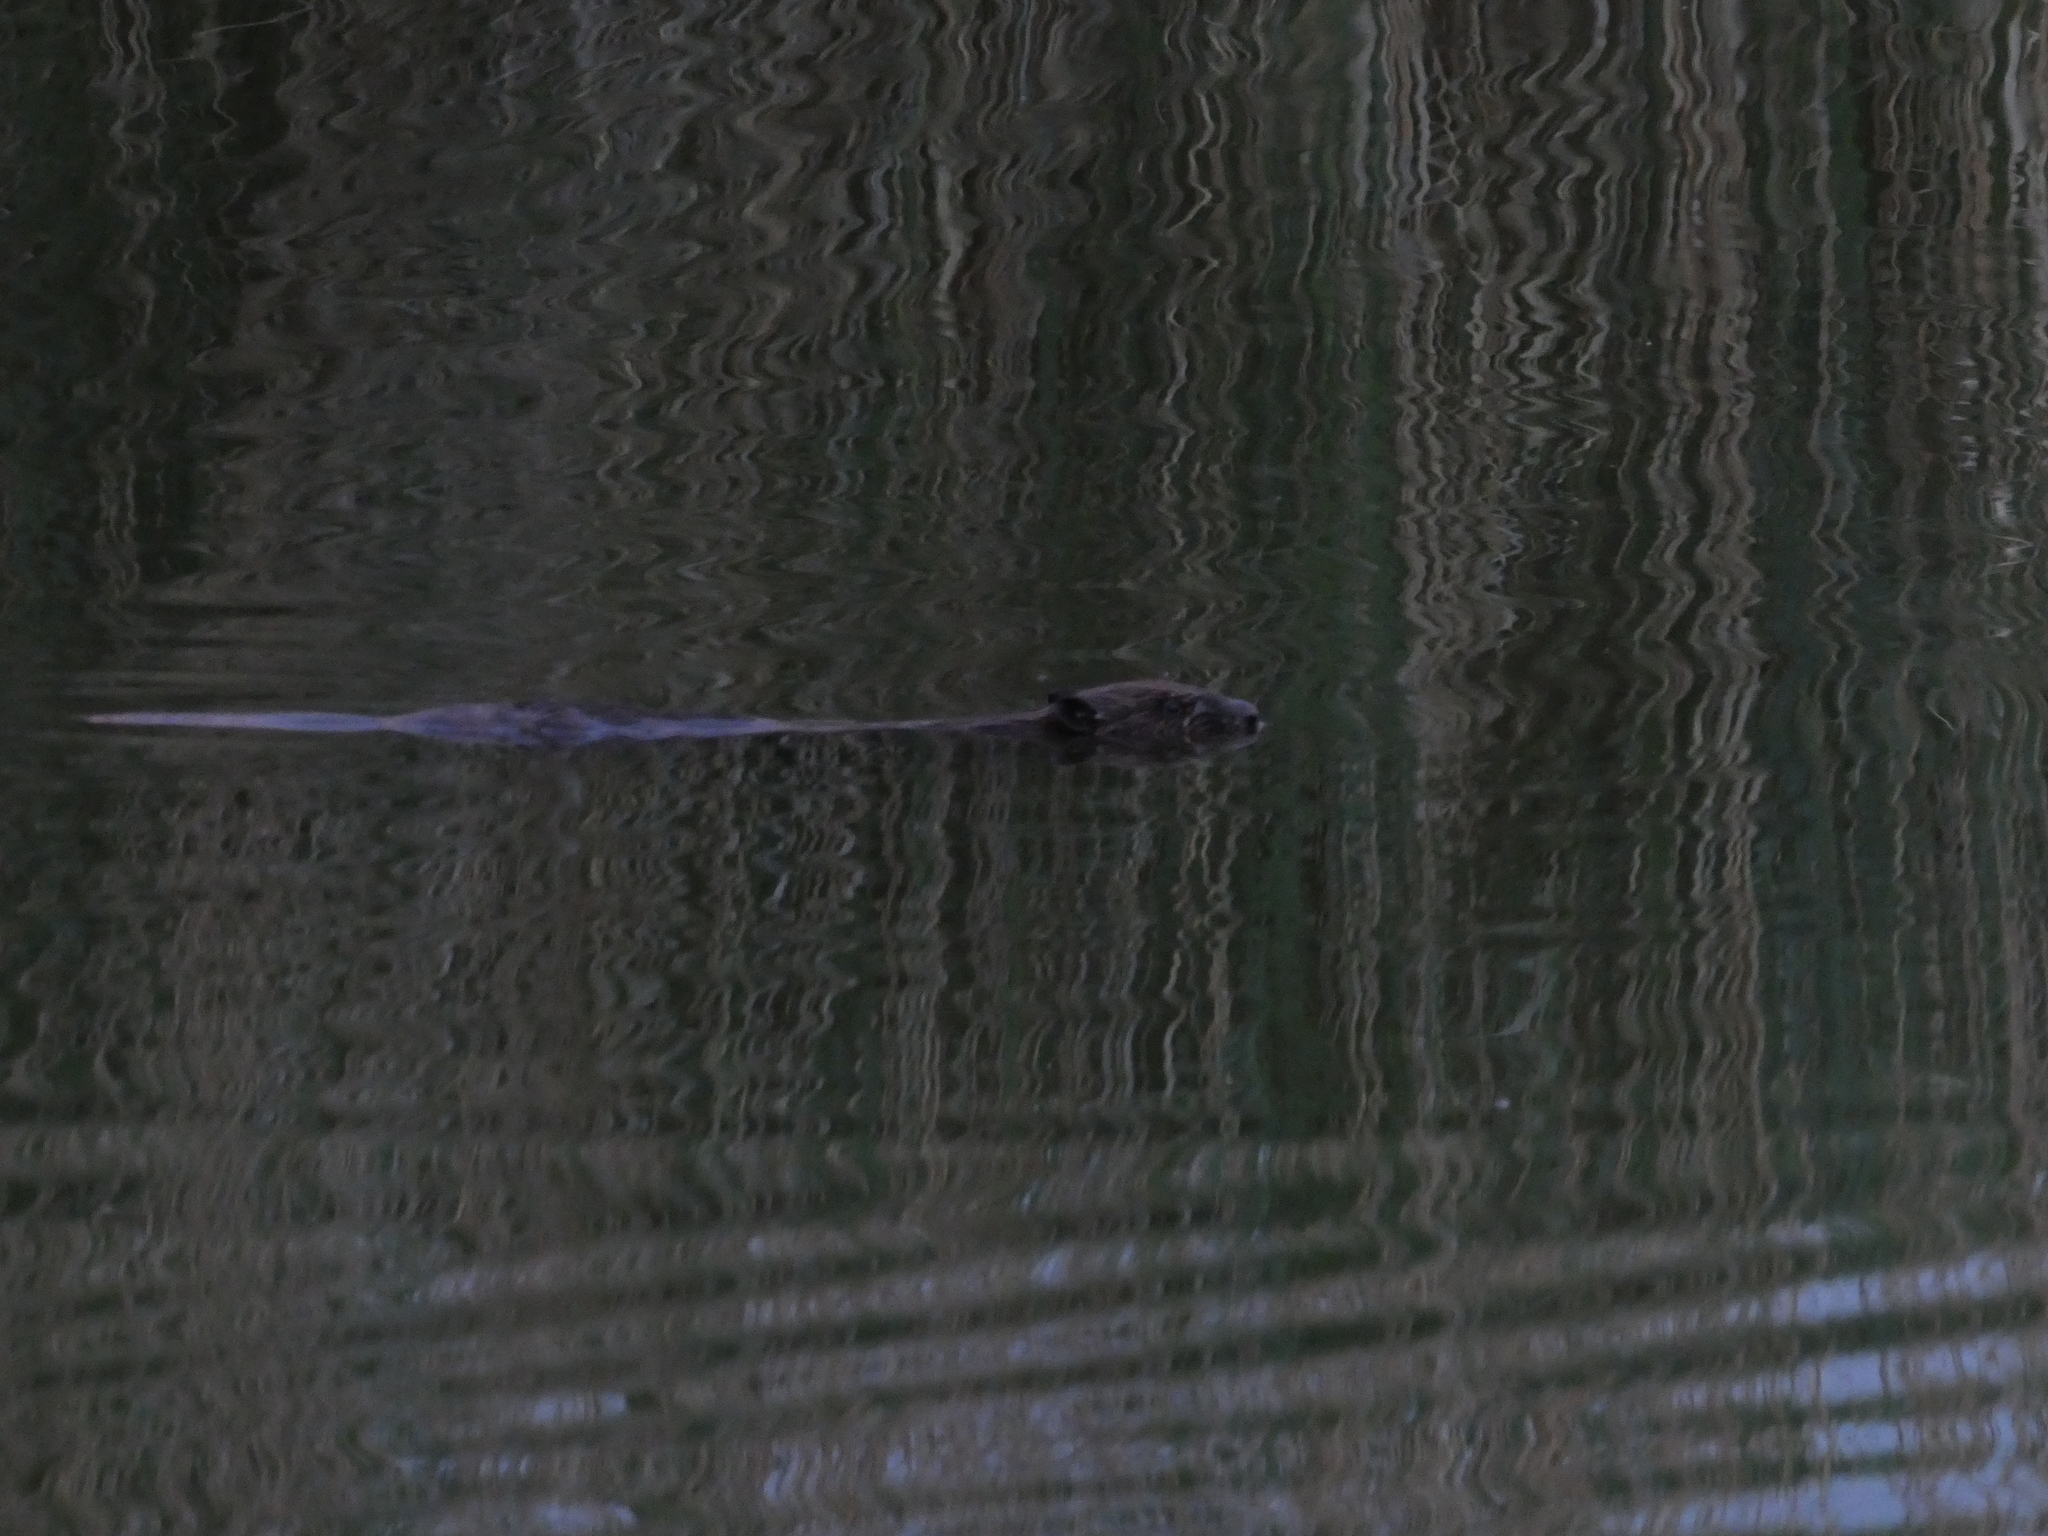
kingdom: Animalia
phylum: Chordata
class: Mammalia
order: Rodentia
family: Castoridae
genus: Castor
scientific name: Castor fiber
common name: Eurasian beaver
